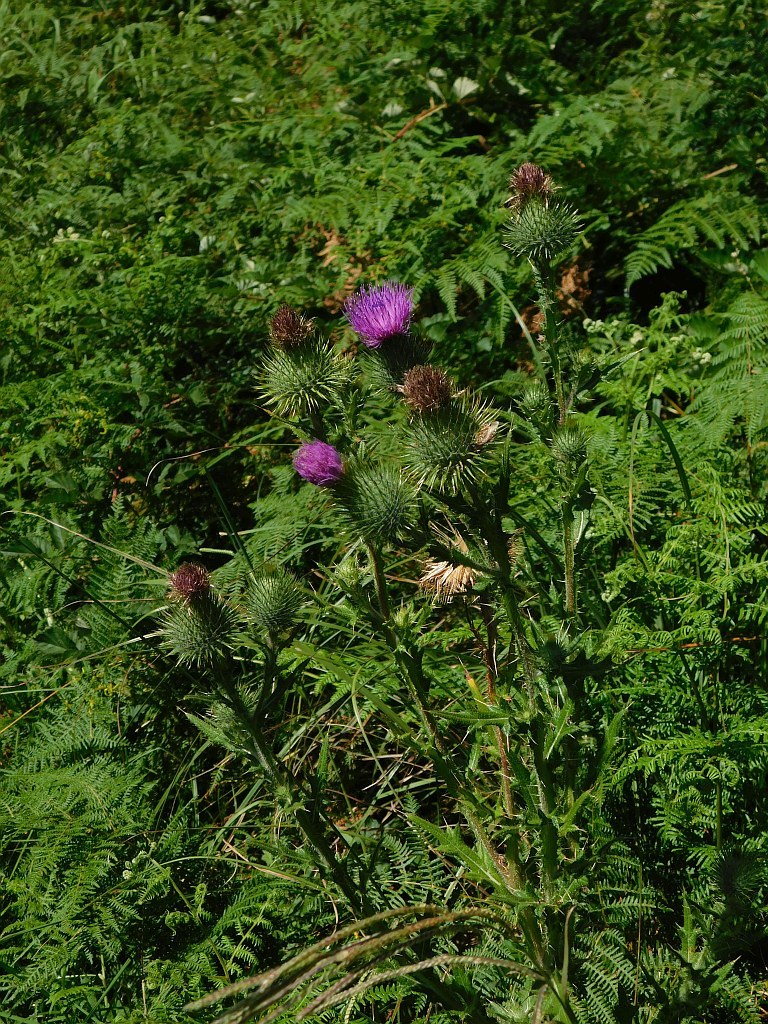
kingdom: Plantae
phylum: Tracheophyta
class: Magnoliopsida
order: Asterales
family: Asteraceae
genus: Cirsium
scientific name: Cirsium vulgare
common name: Bull thistle
